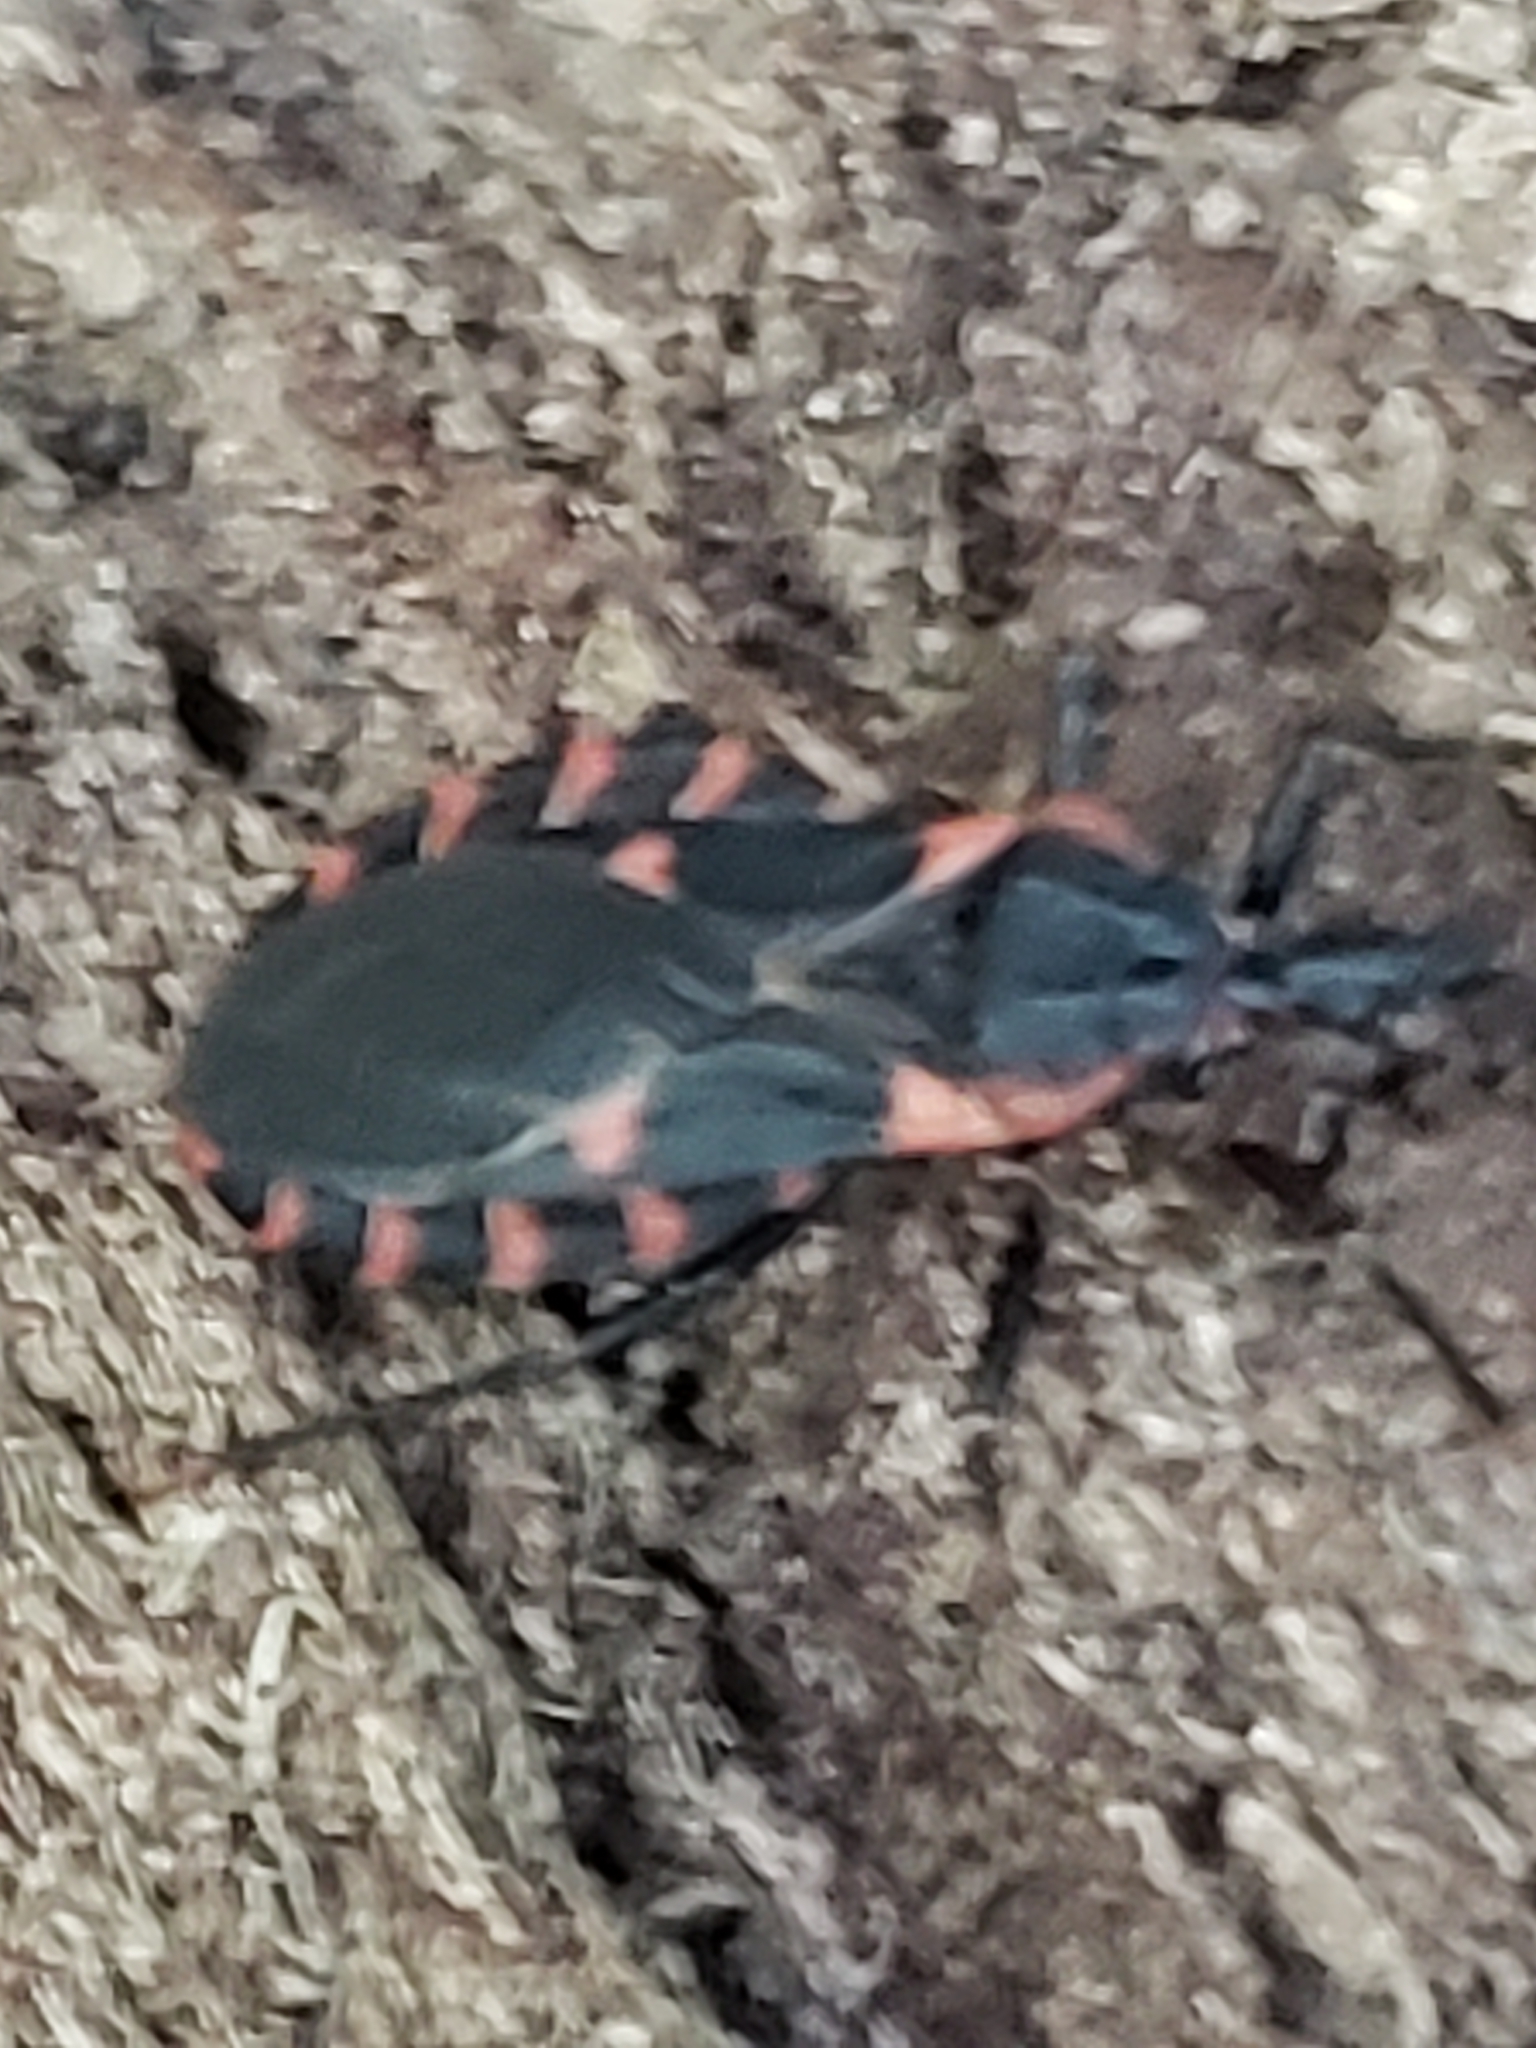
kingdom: Animalia
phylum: Arthropoda
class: Insecta
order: Hemiptera
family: Reduviidae
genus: Triatoma
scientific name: Triatoma sanguisuga
